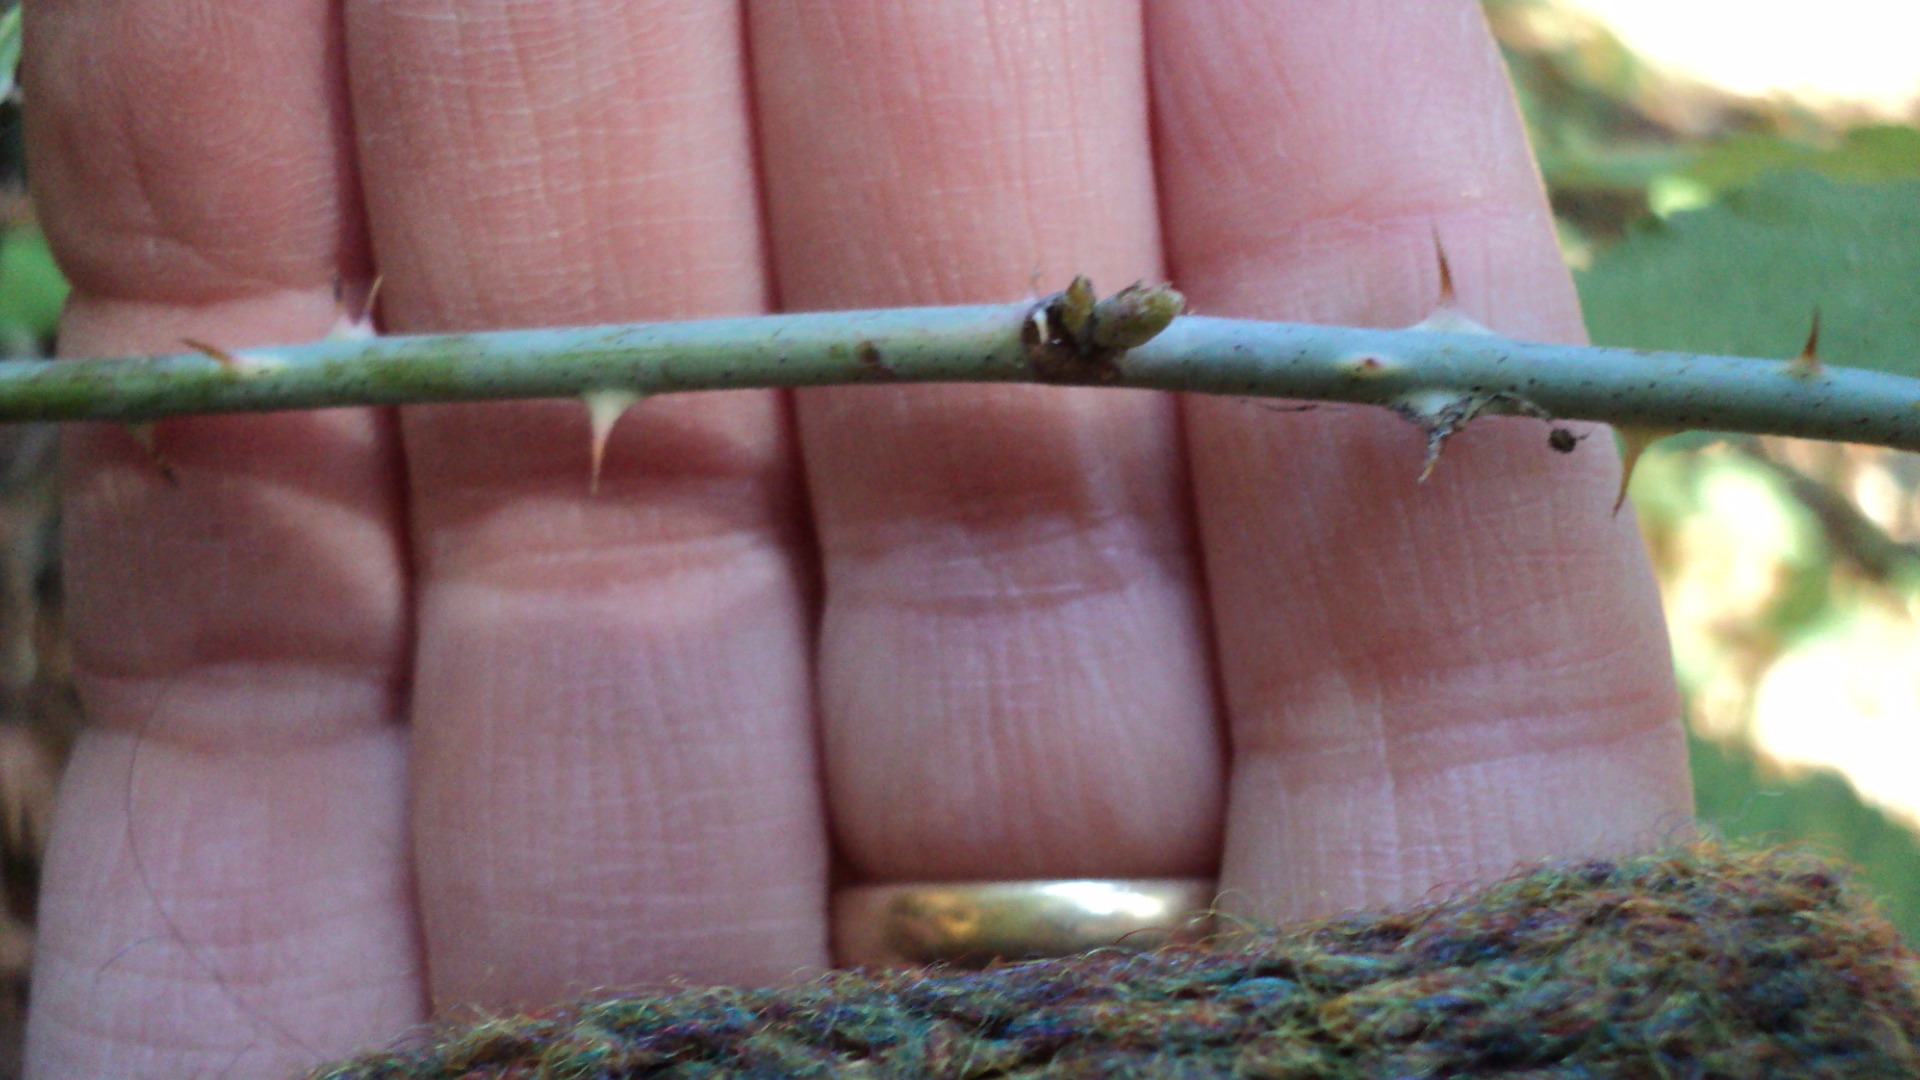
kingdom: Plantae
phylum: Tracheophyta
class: Magnoliopsida
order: Rosales
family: Rosaceae
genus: Rubus
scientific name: Rubus leucodermis
